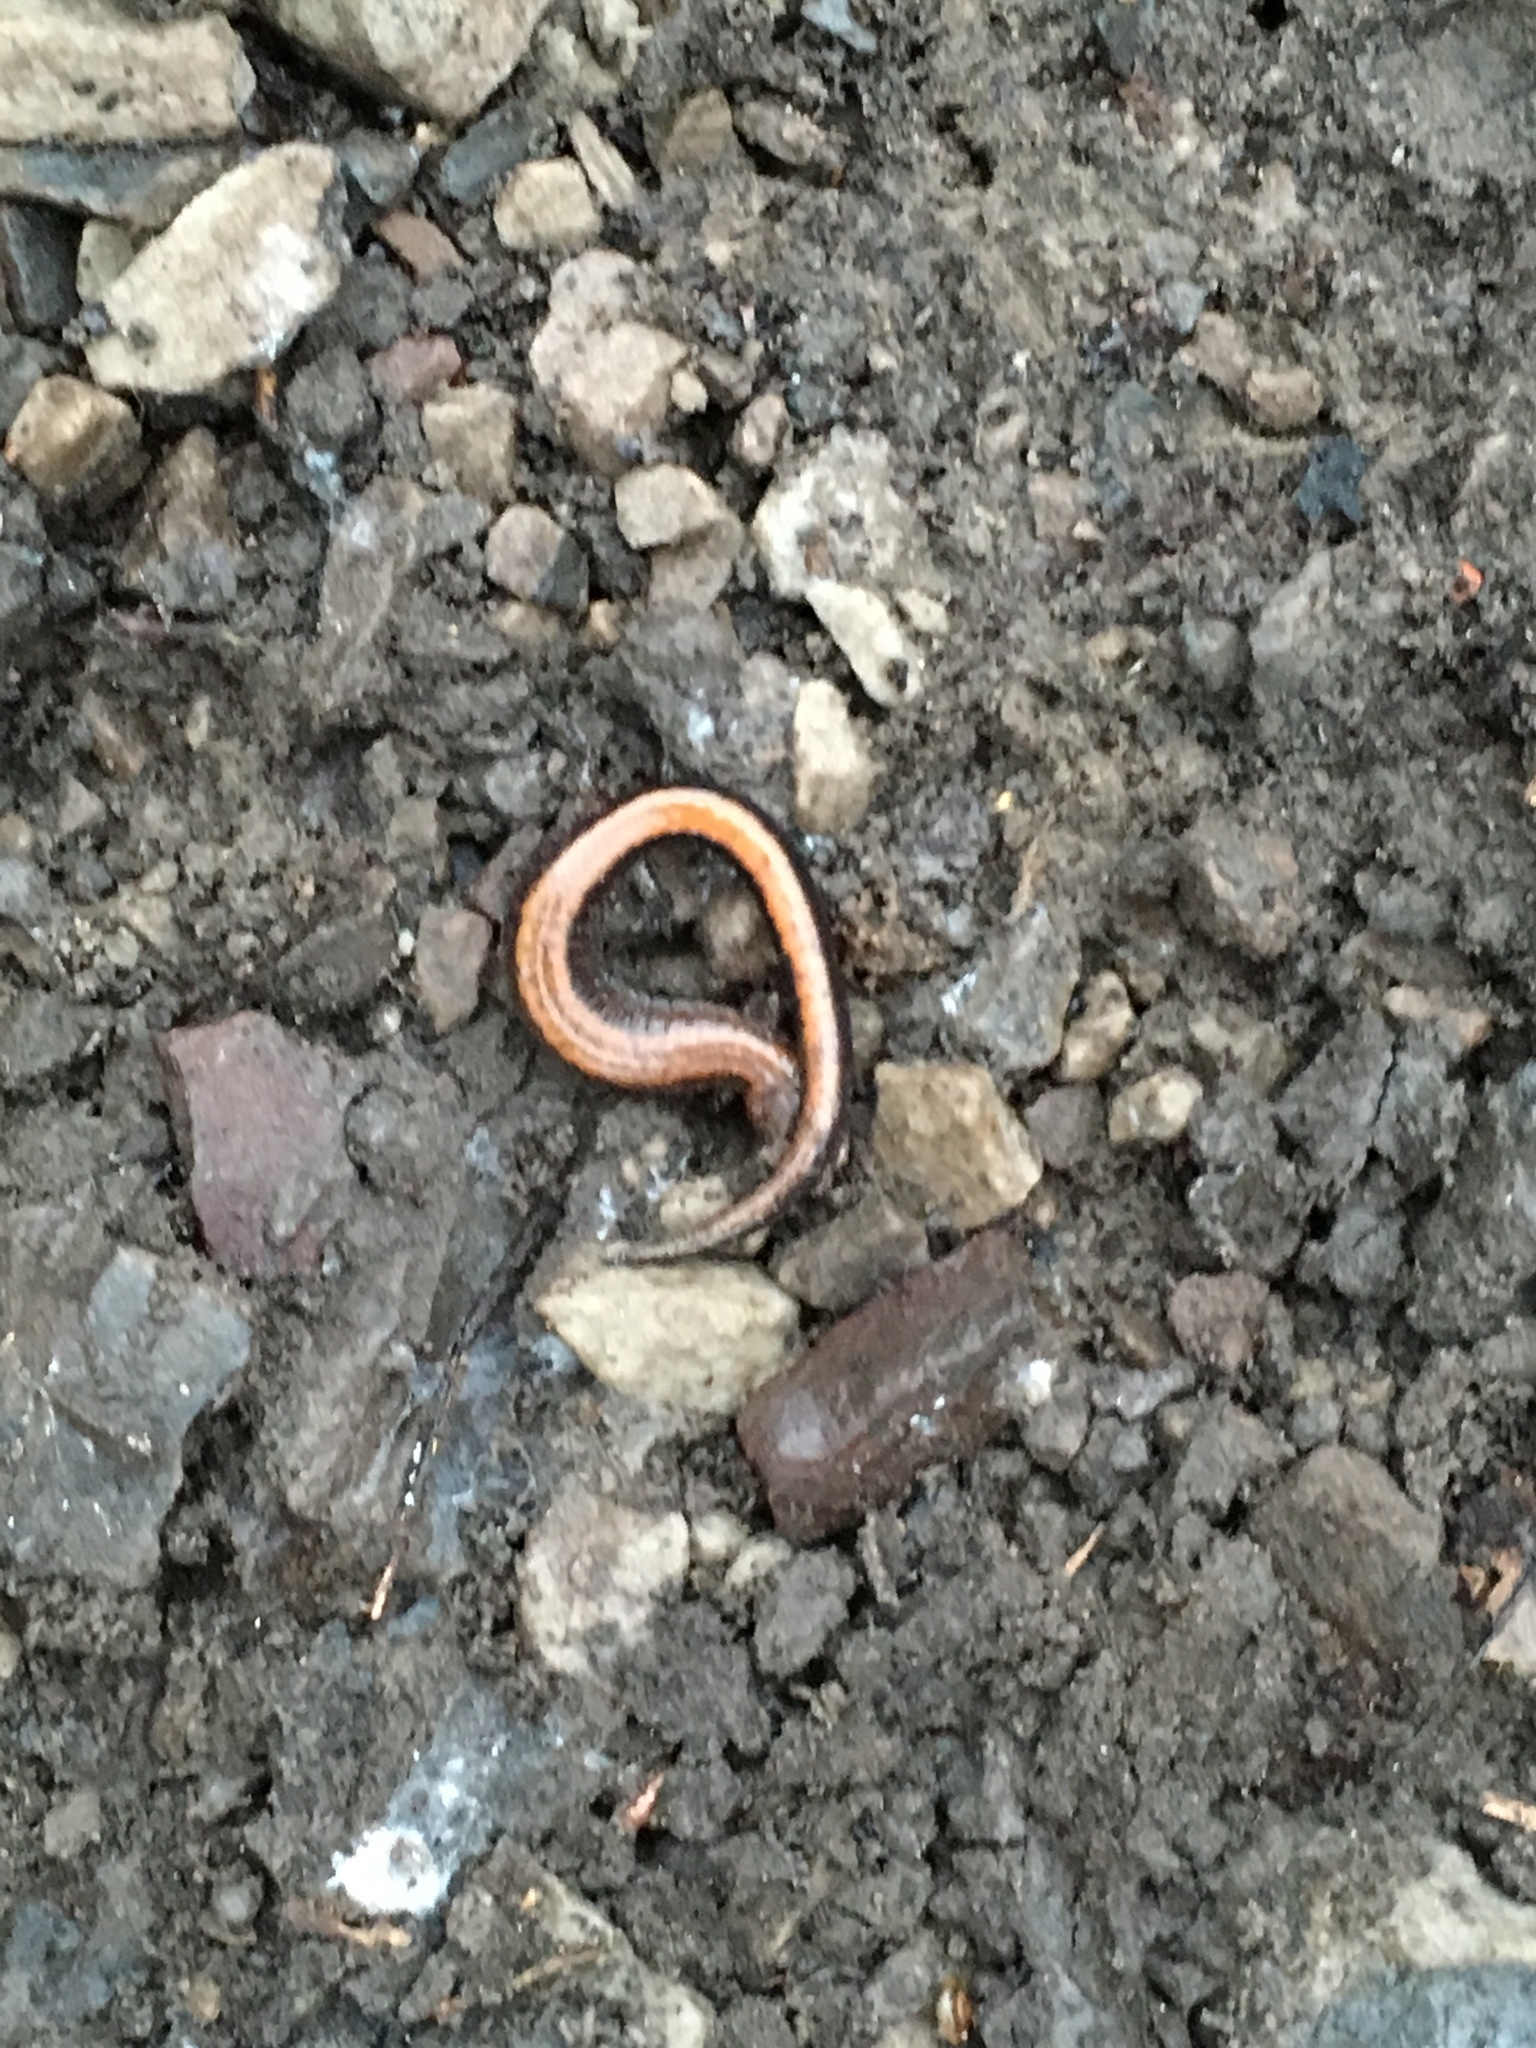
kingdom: Animalia
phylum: Chordata
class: Amphibia
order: Caudata
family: Plethodontidae
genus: Plethodon
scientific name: Plethodon cinereus
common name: Redback salamander
